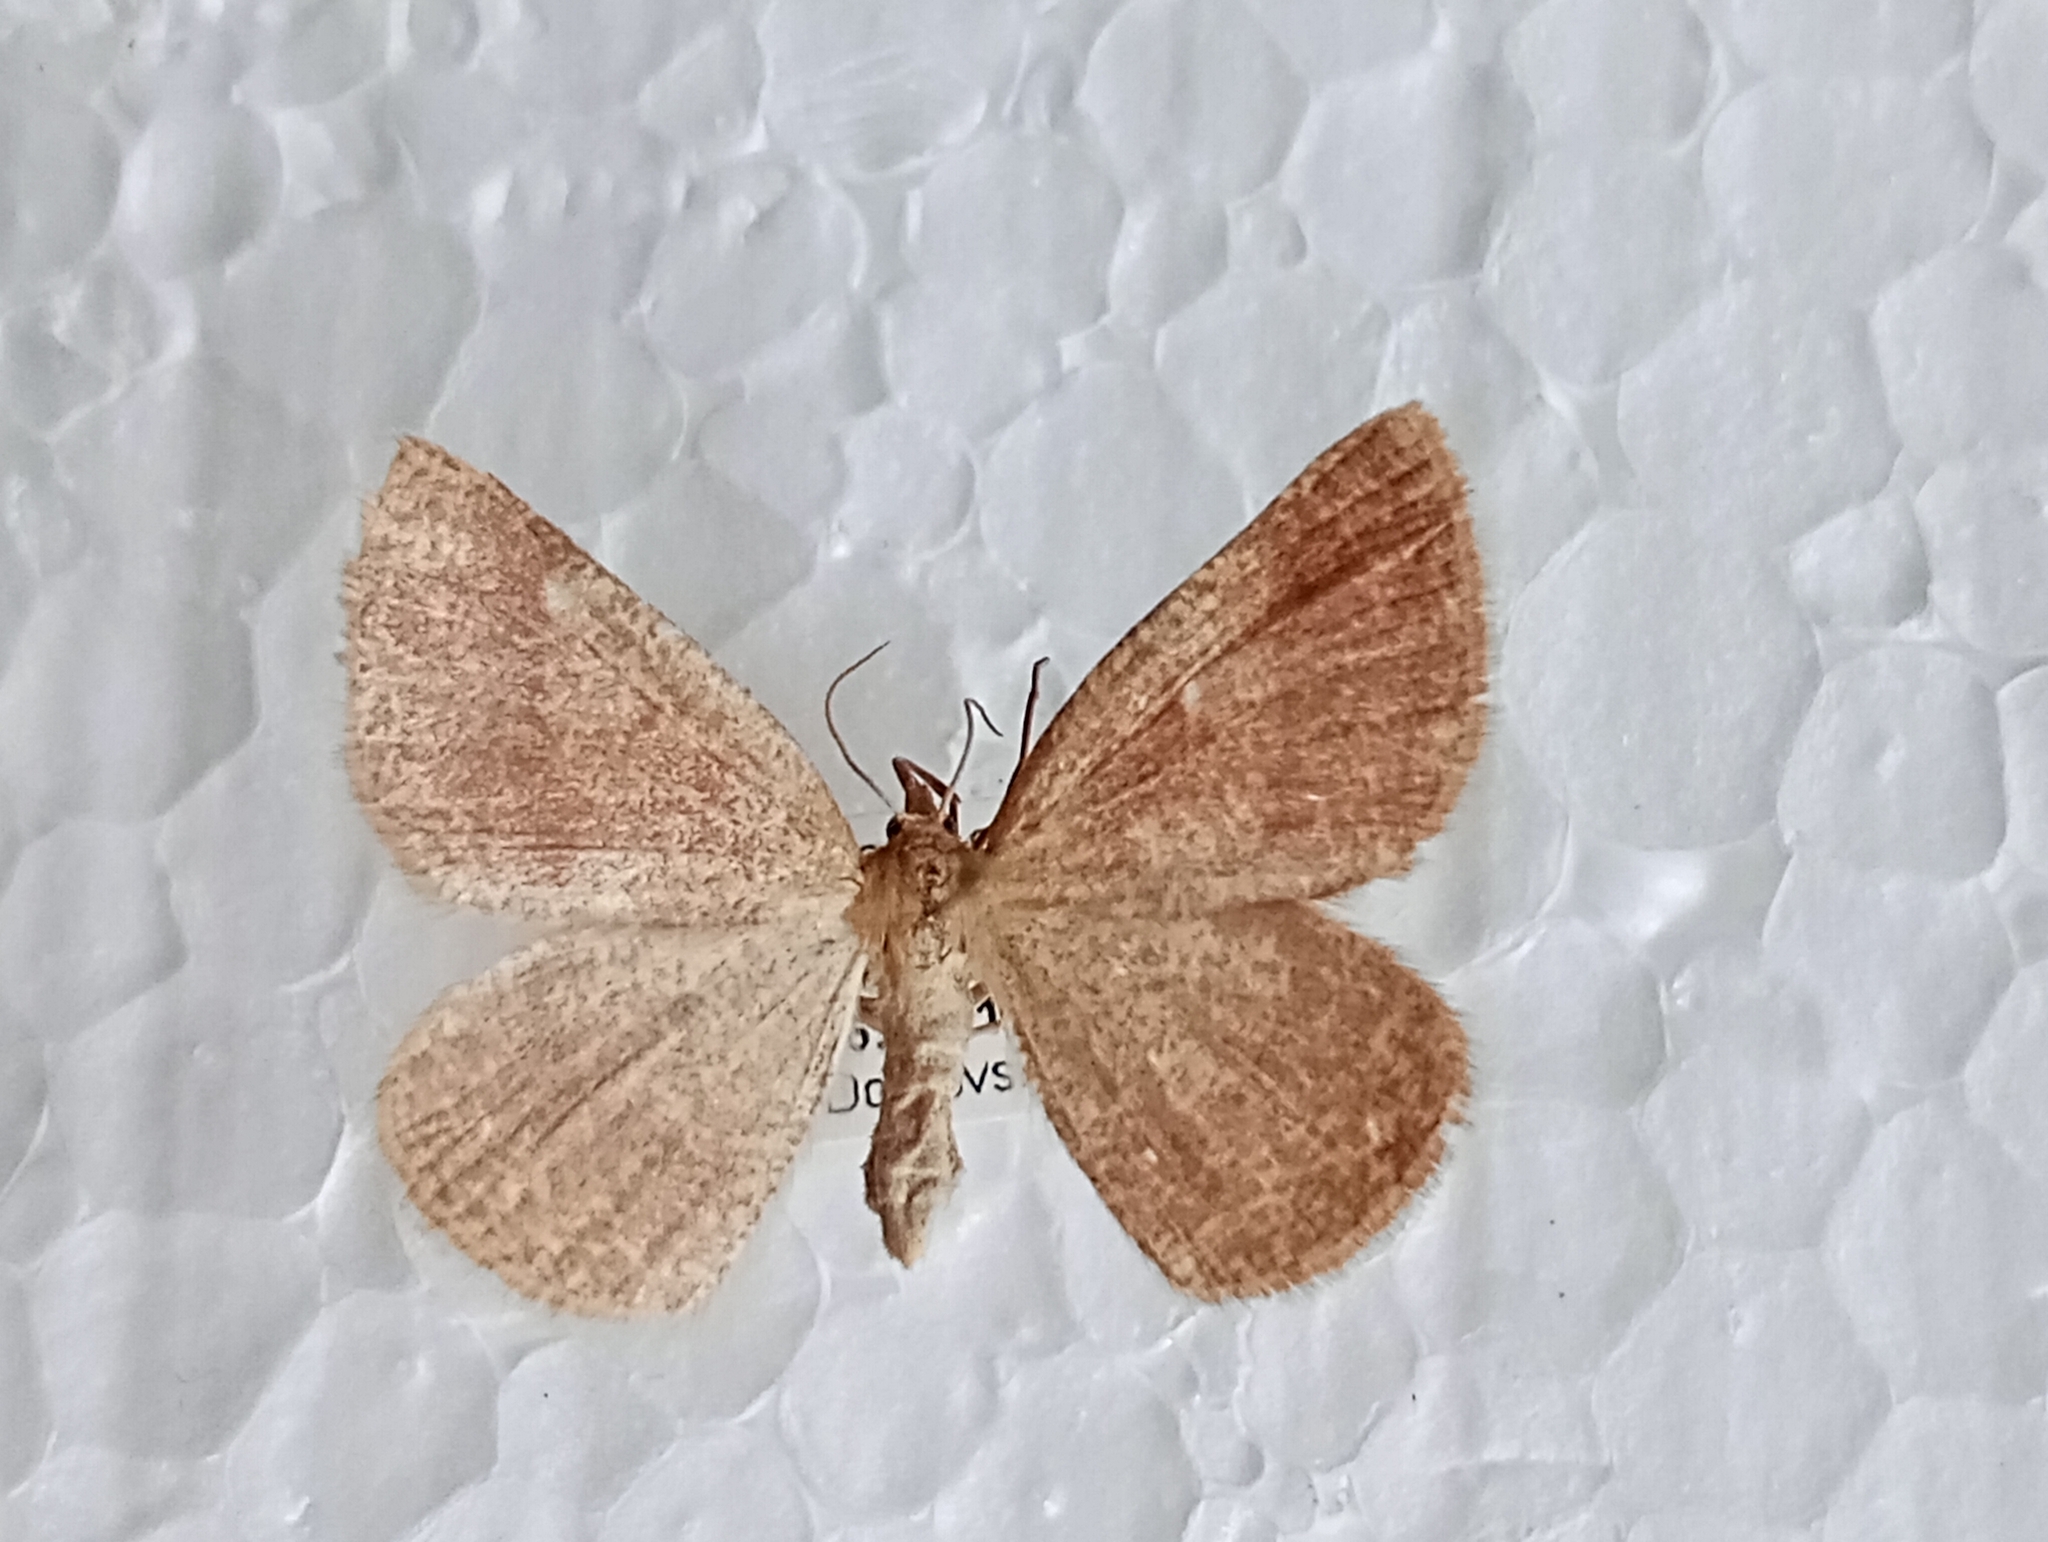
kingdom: Animalia
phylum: Arthropoda
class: Insecta
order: Lepidoptera
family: Geometridae
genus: Aplasta
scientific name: Aplasta ononaria
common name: Rest harrow
